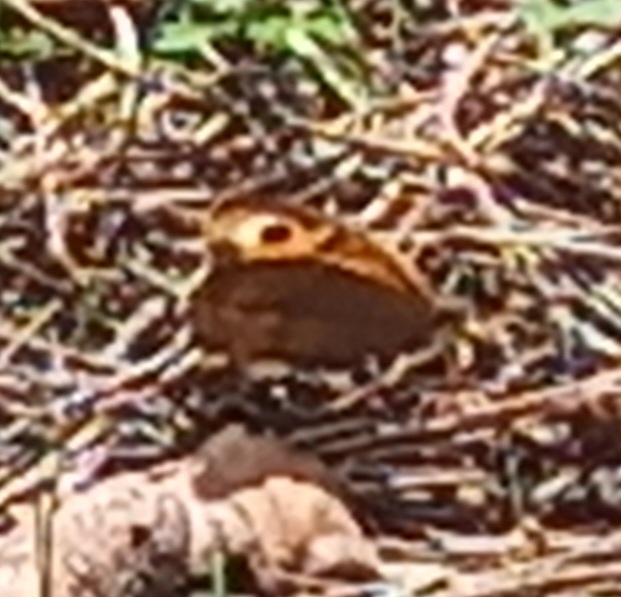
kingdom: Animalia
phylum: Arthropoda
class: Insecta
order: Lepidoptera
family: Nymphalidae
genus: Maniola
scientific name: Maniola jurtina
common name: Meadow brown
